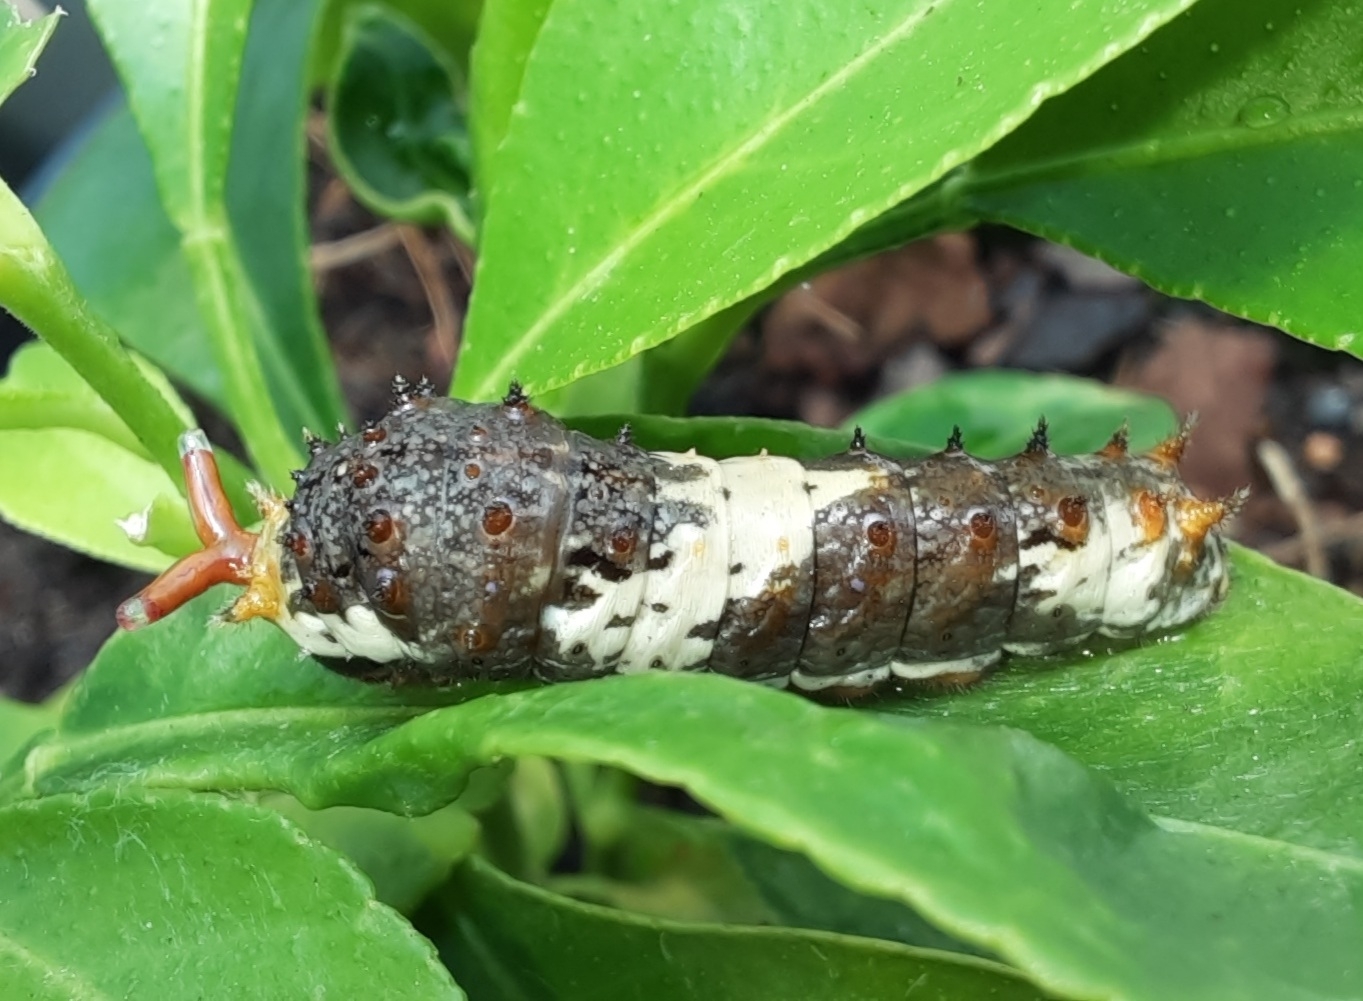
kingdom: Animalia
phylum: Arthropoda
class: Insecta
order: Lepidoptera
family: Papilionidae
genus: Papilio
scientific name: Papilio demodocus
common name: Christmas butterfly
